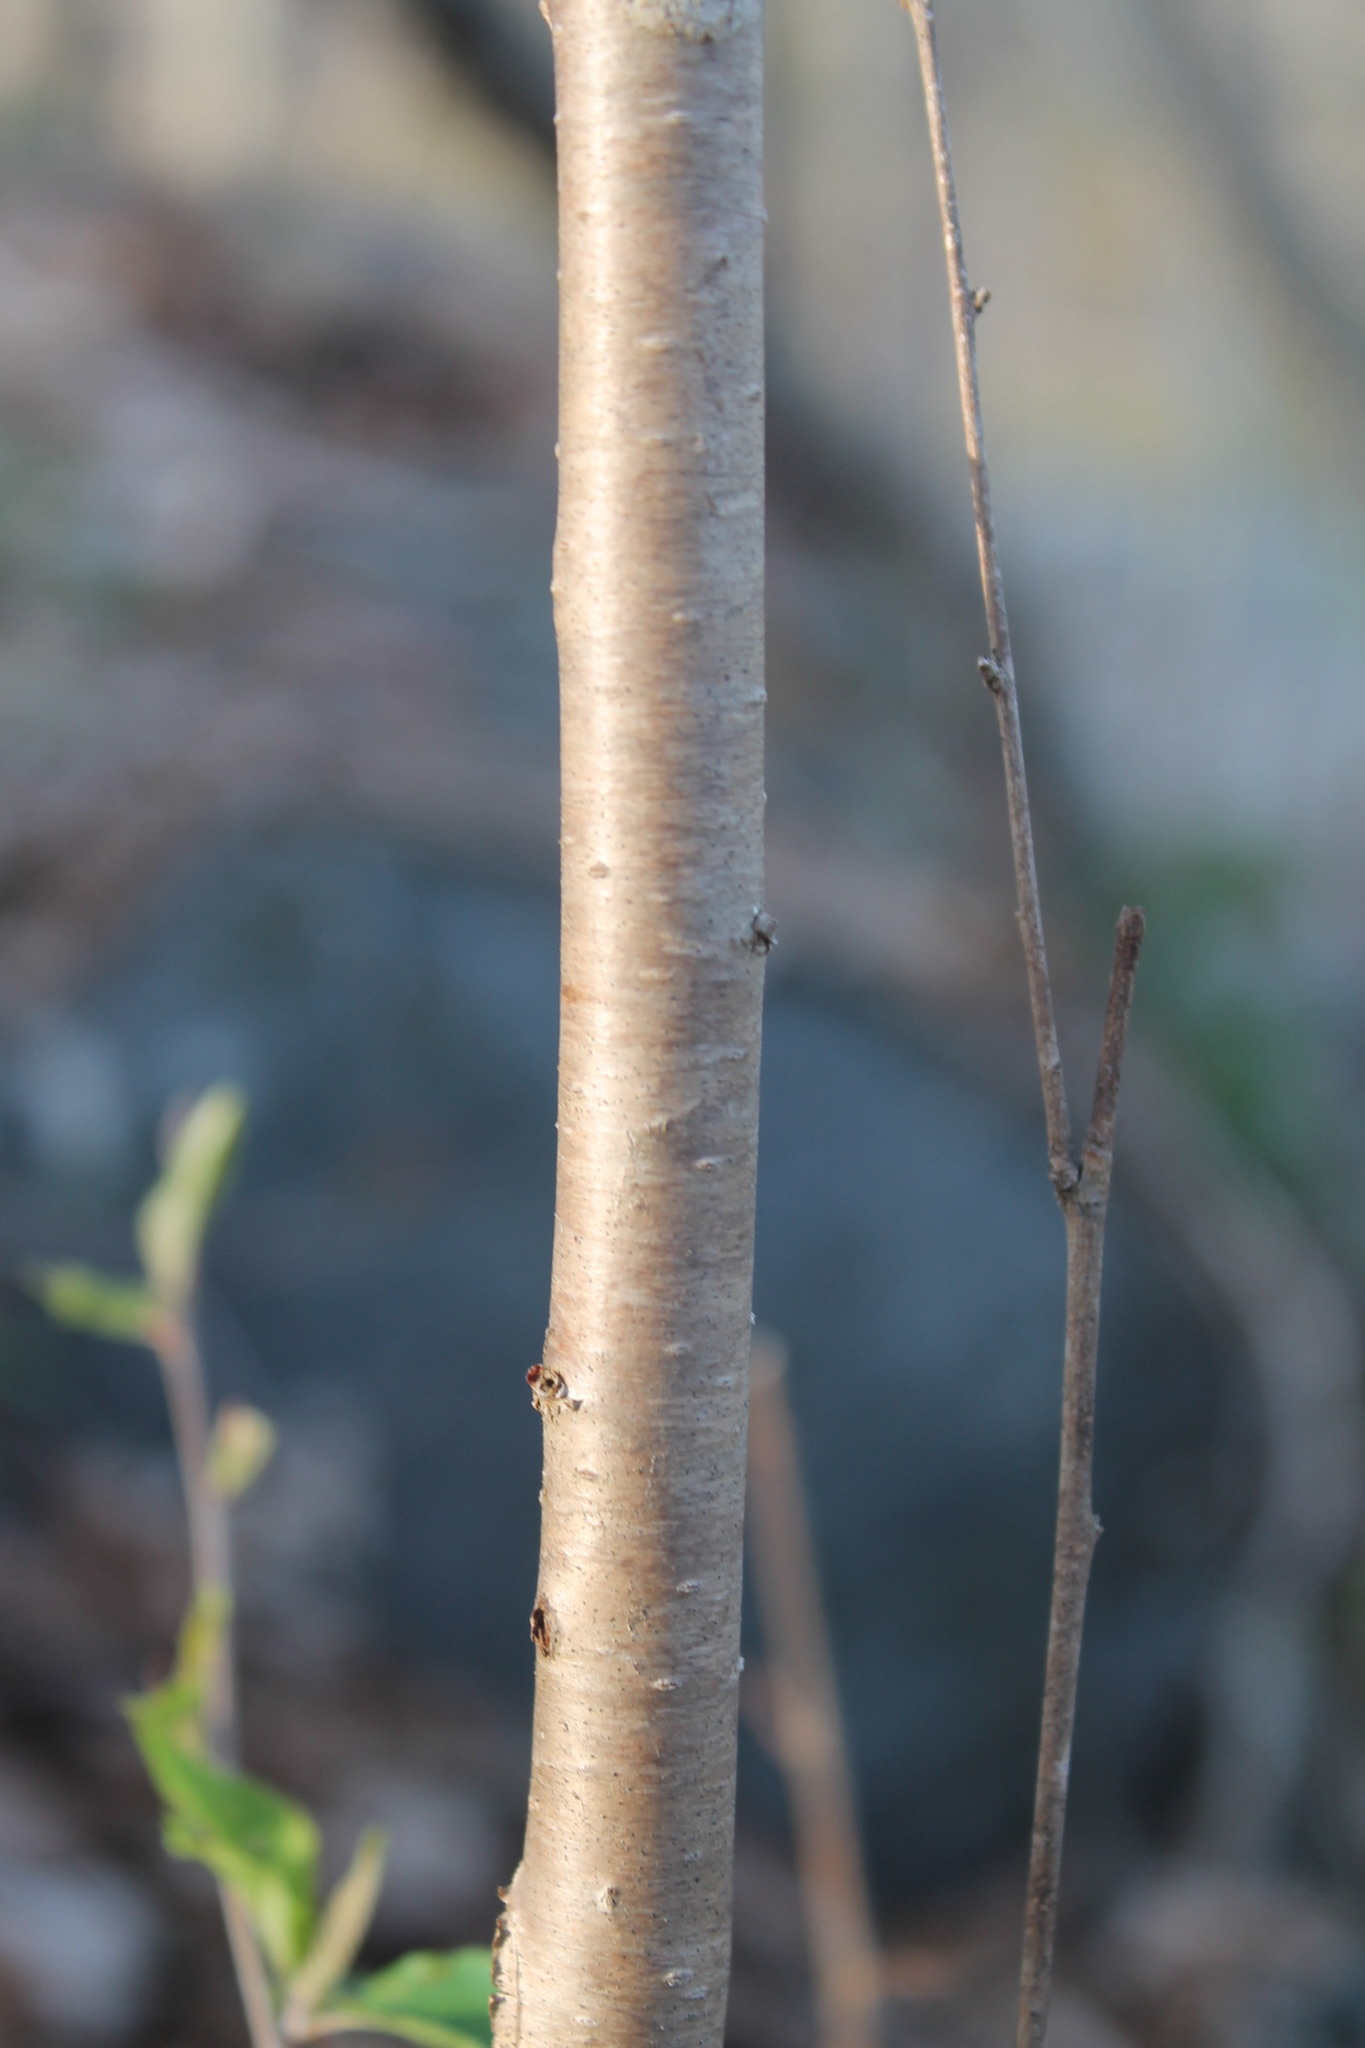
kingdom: Plantae
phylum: Tracheophyta
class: Magnoliopsida
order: Rosales
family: Rosaceae
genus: Prunus
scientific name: Prunus avium
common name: Sweet cherry
